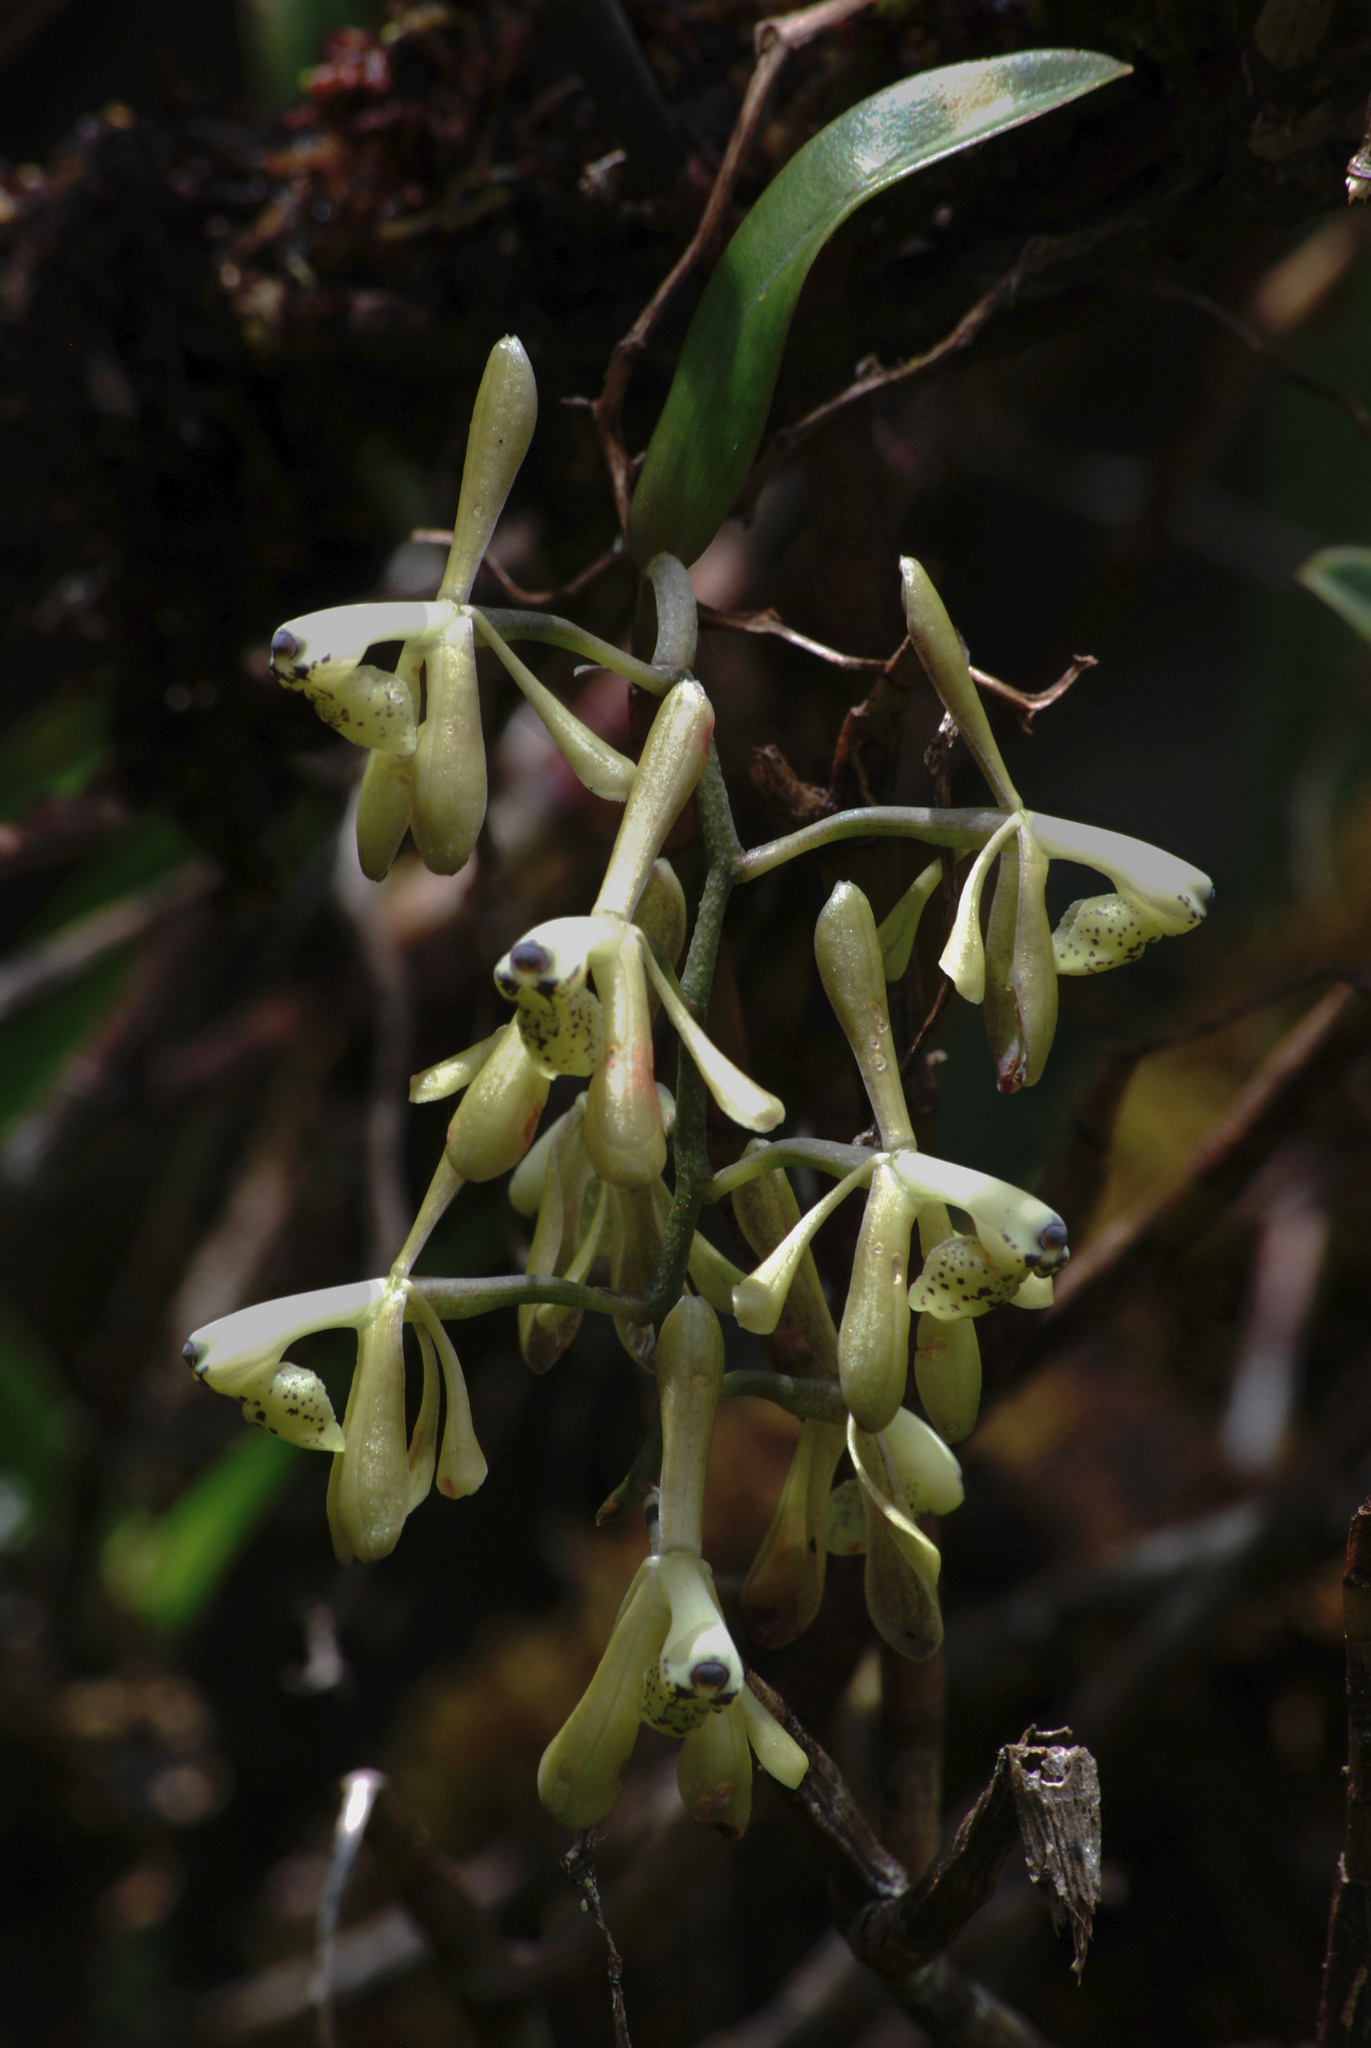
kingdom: Plantae
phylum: Tracheophyta
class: Liliopsida
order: Asparagales
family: Orchidaceae
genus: Epidendrum
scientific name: Epidendrum erosum
